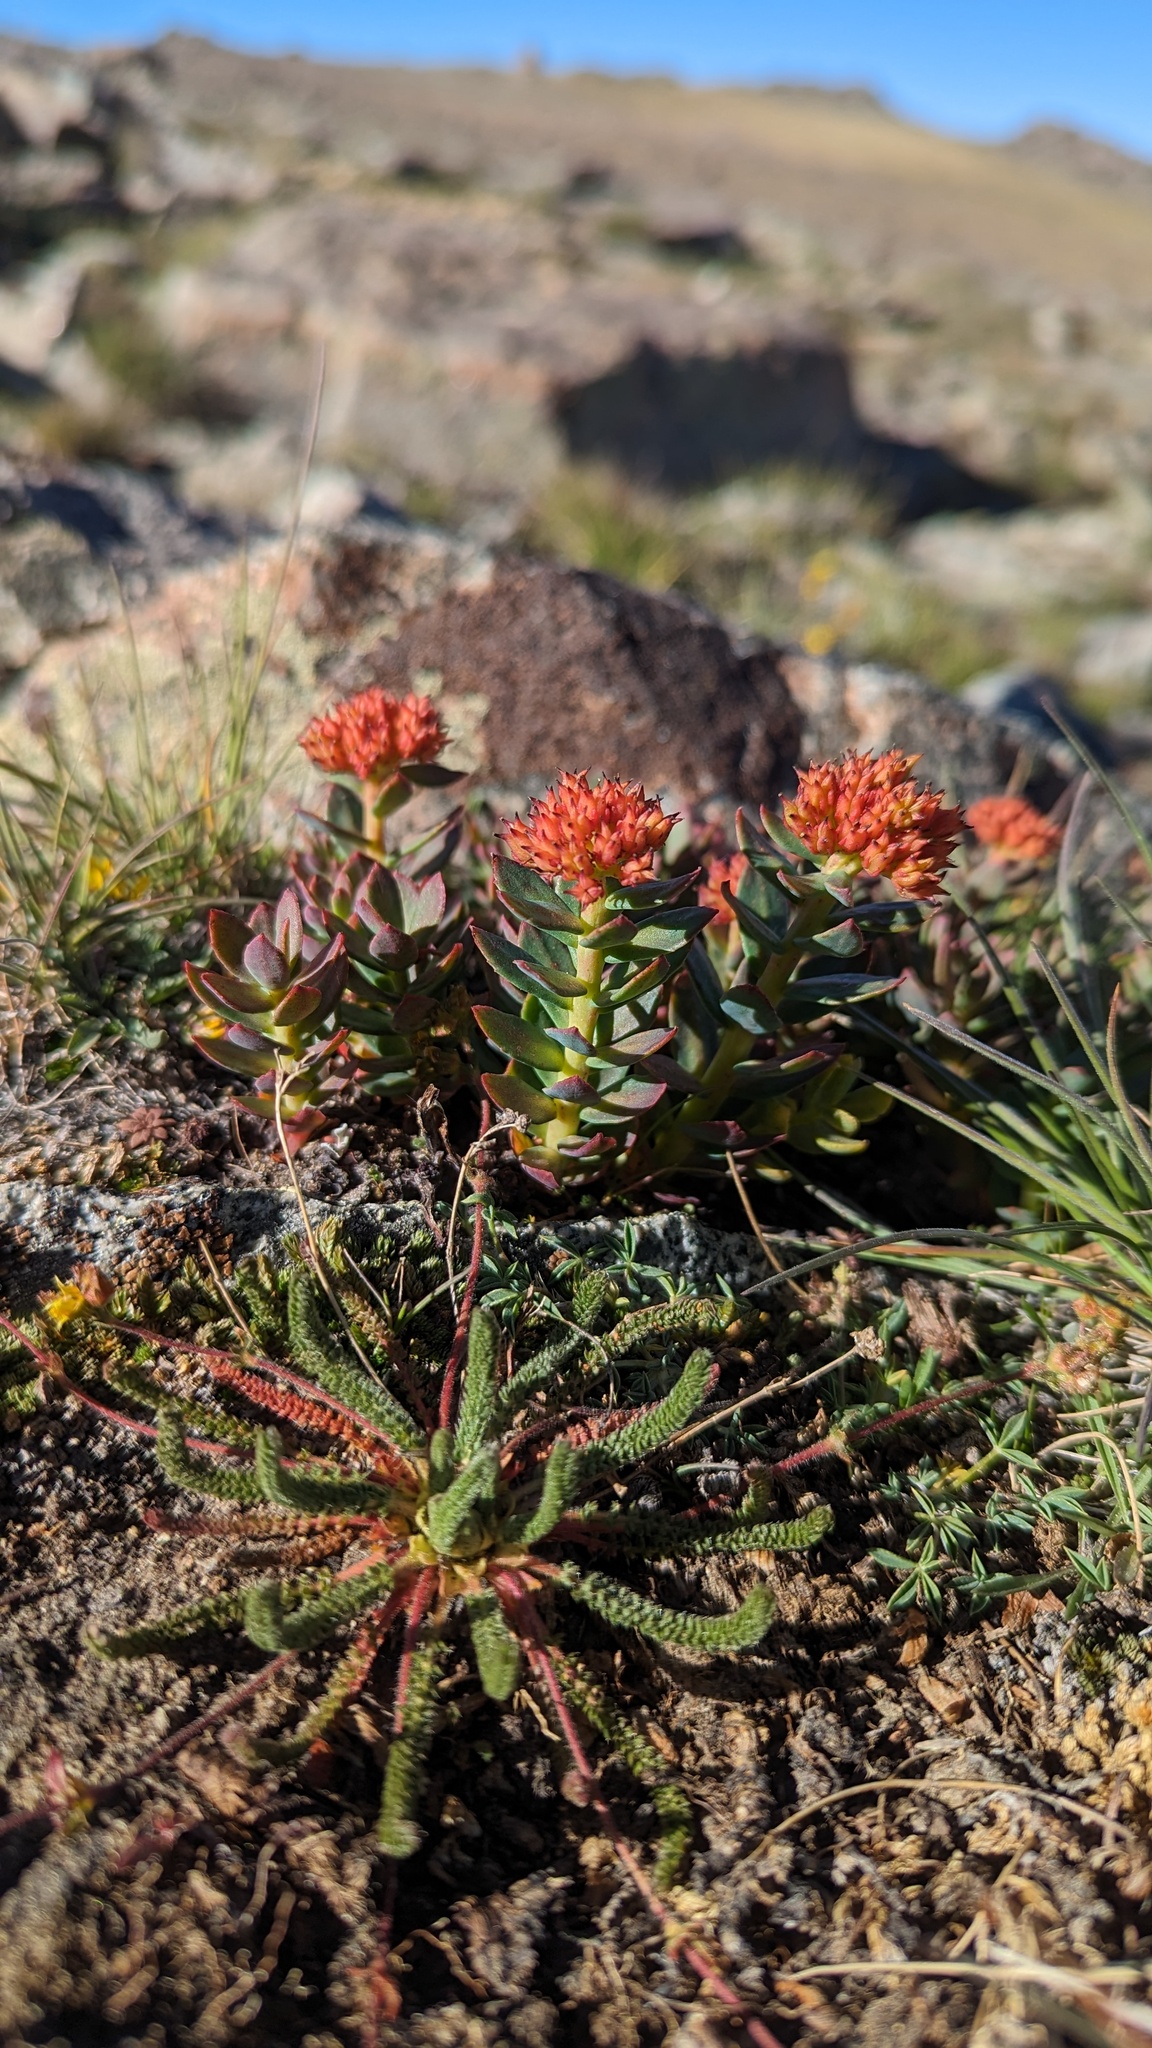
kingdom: Plantae
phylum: Tracheophyta
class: Magnoliopsida
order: Saxifragales
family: Crassulaceae
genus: Rhodiola
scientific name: Rhodiola integrifolia
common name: Western roseroot
